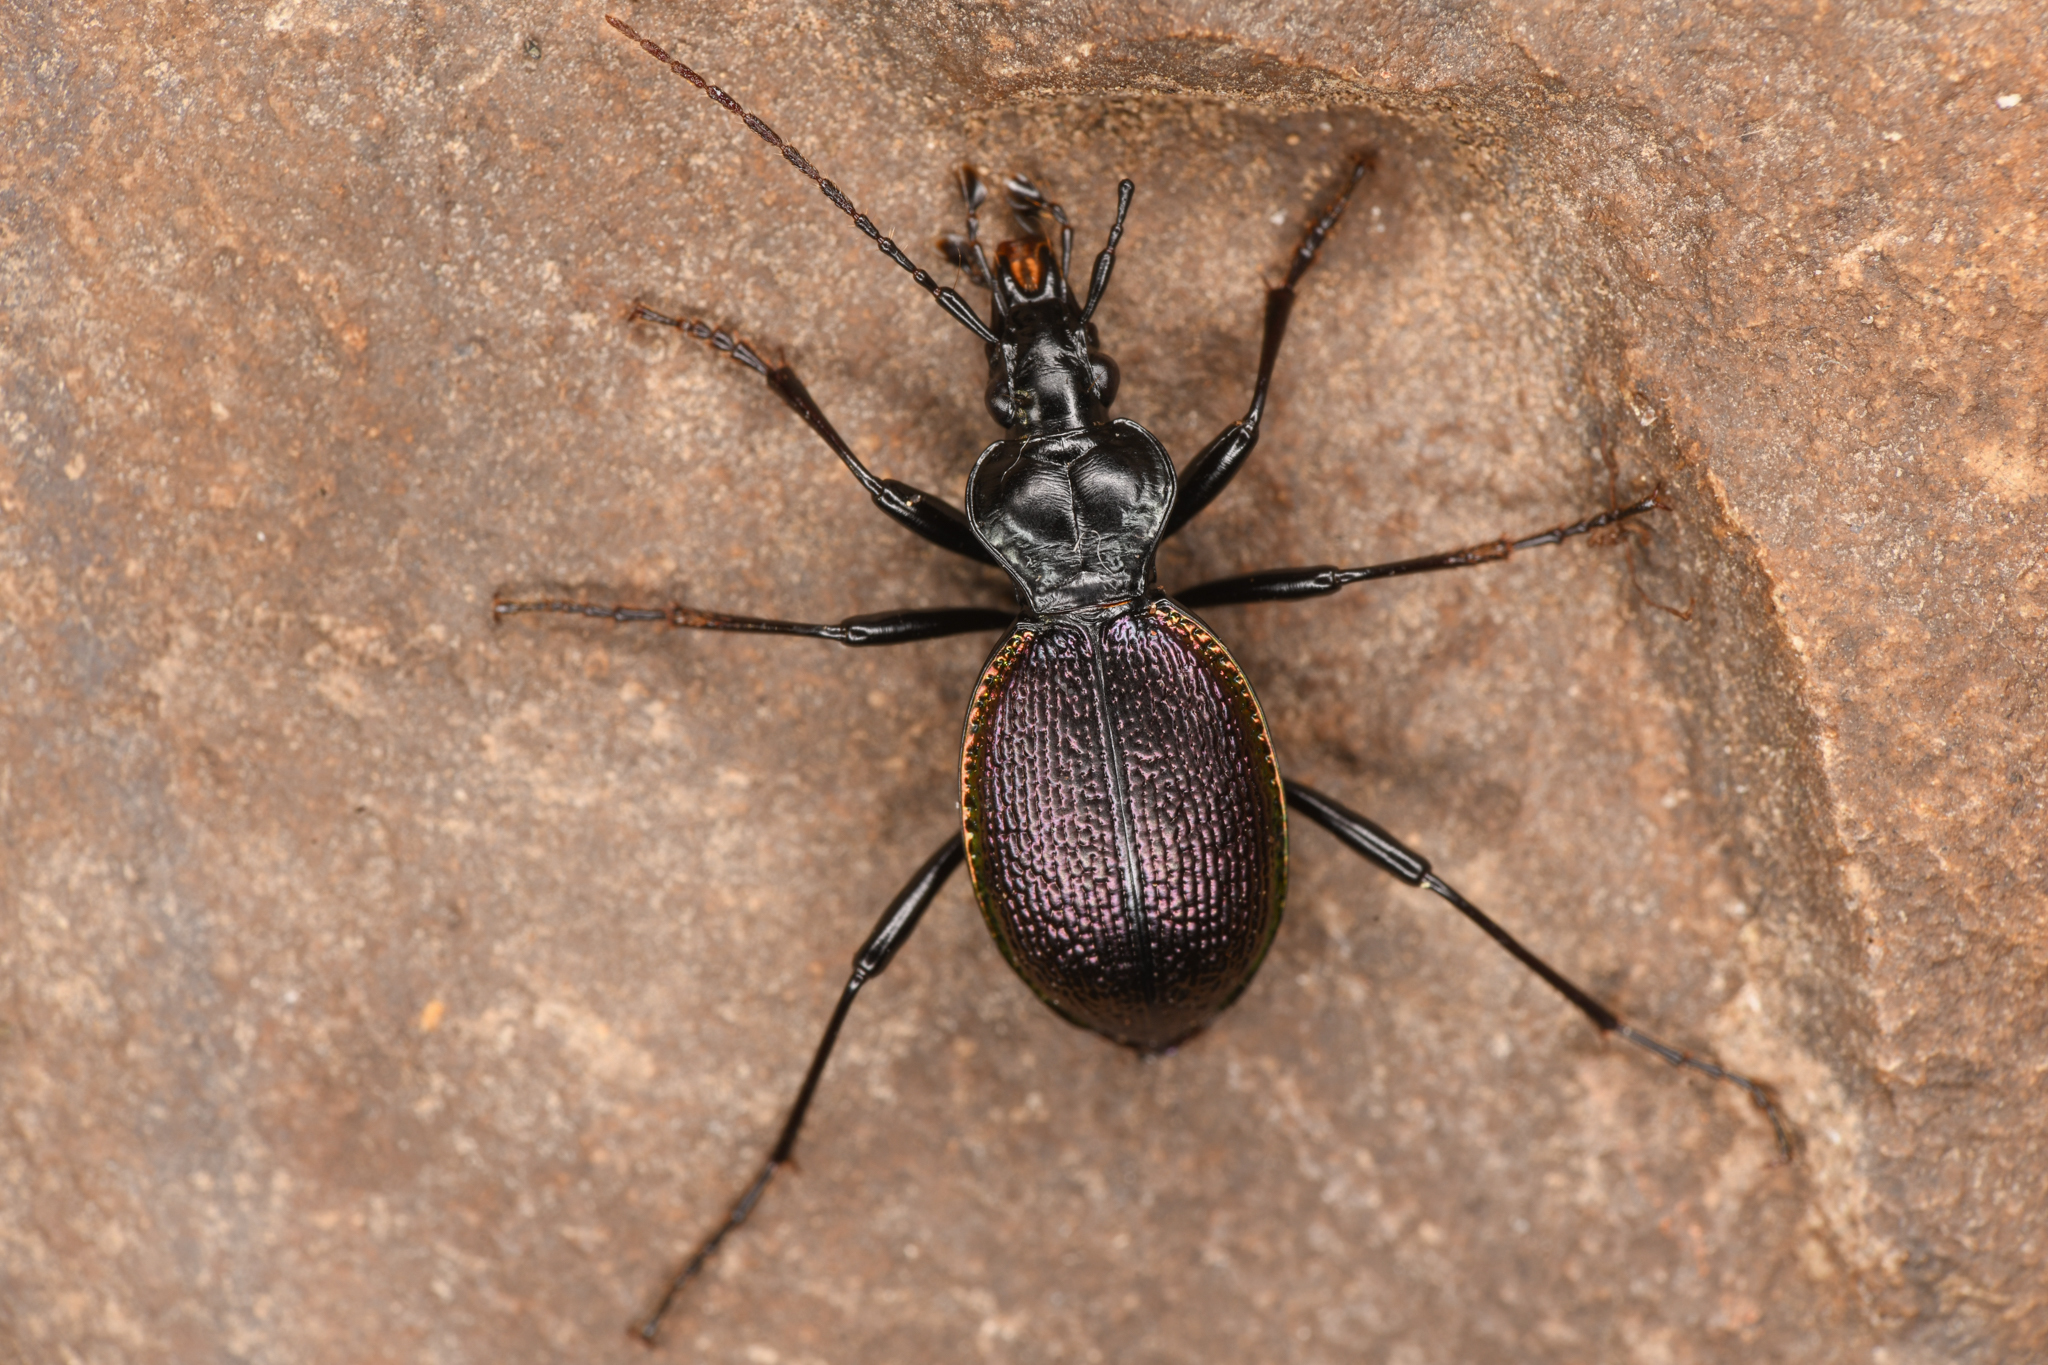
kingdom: Animalia
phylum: Arthropoda
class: Insecta
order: Coleoptera
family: Carabidae
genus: Scaphinotus
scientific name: Scaphinotus marginatus
